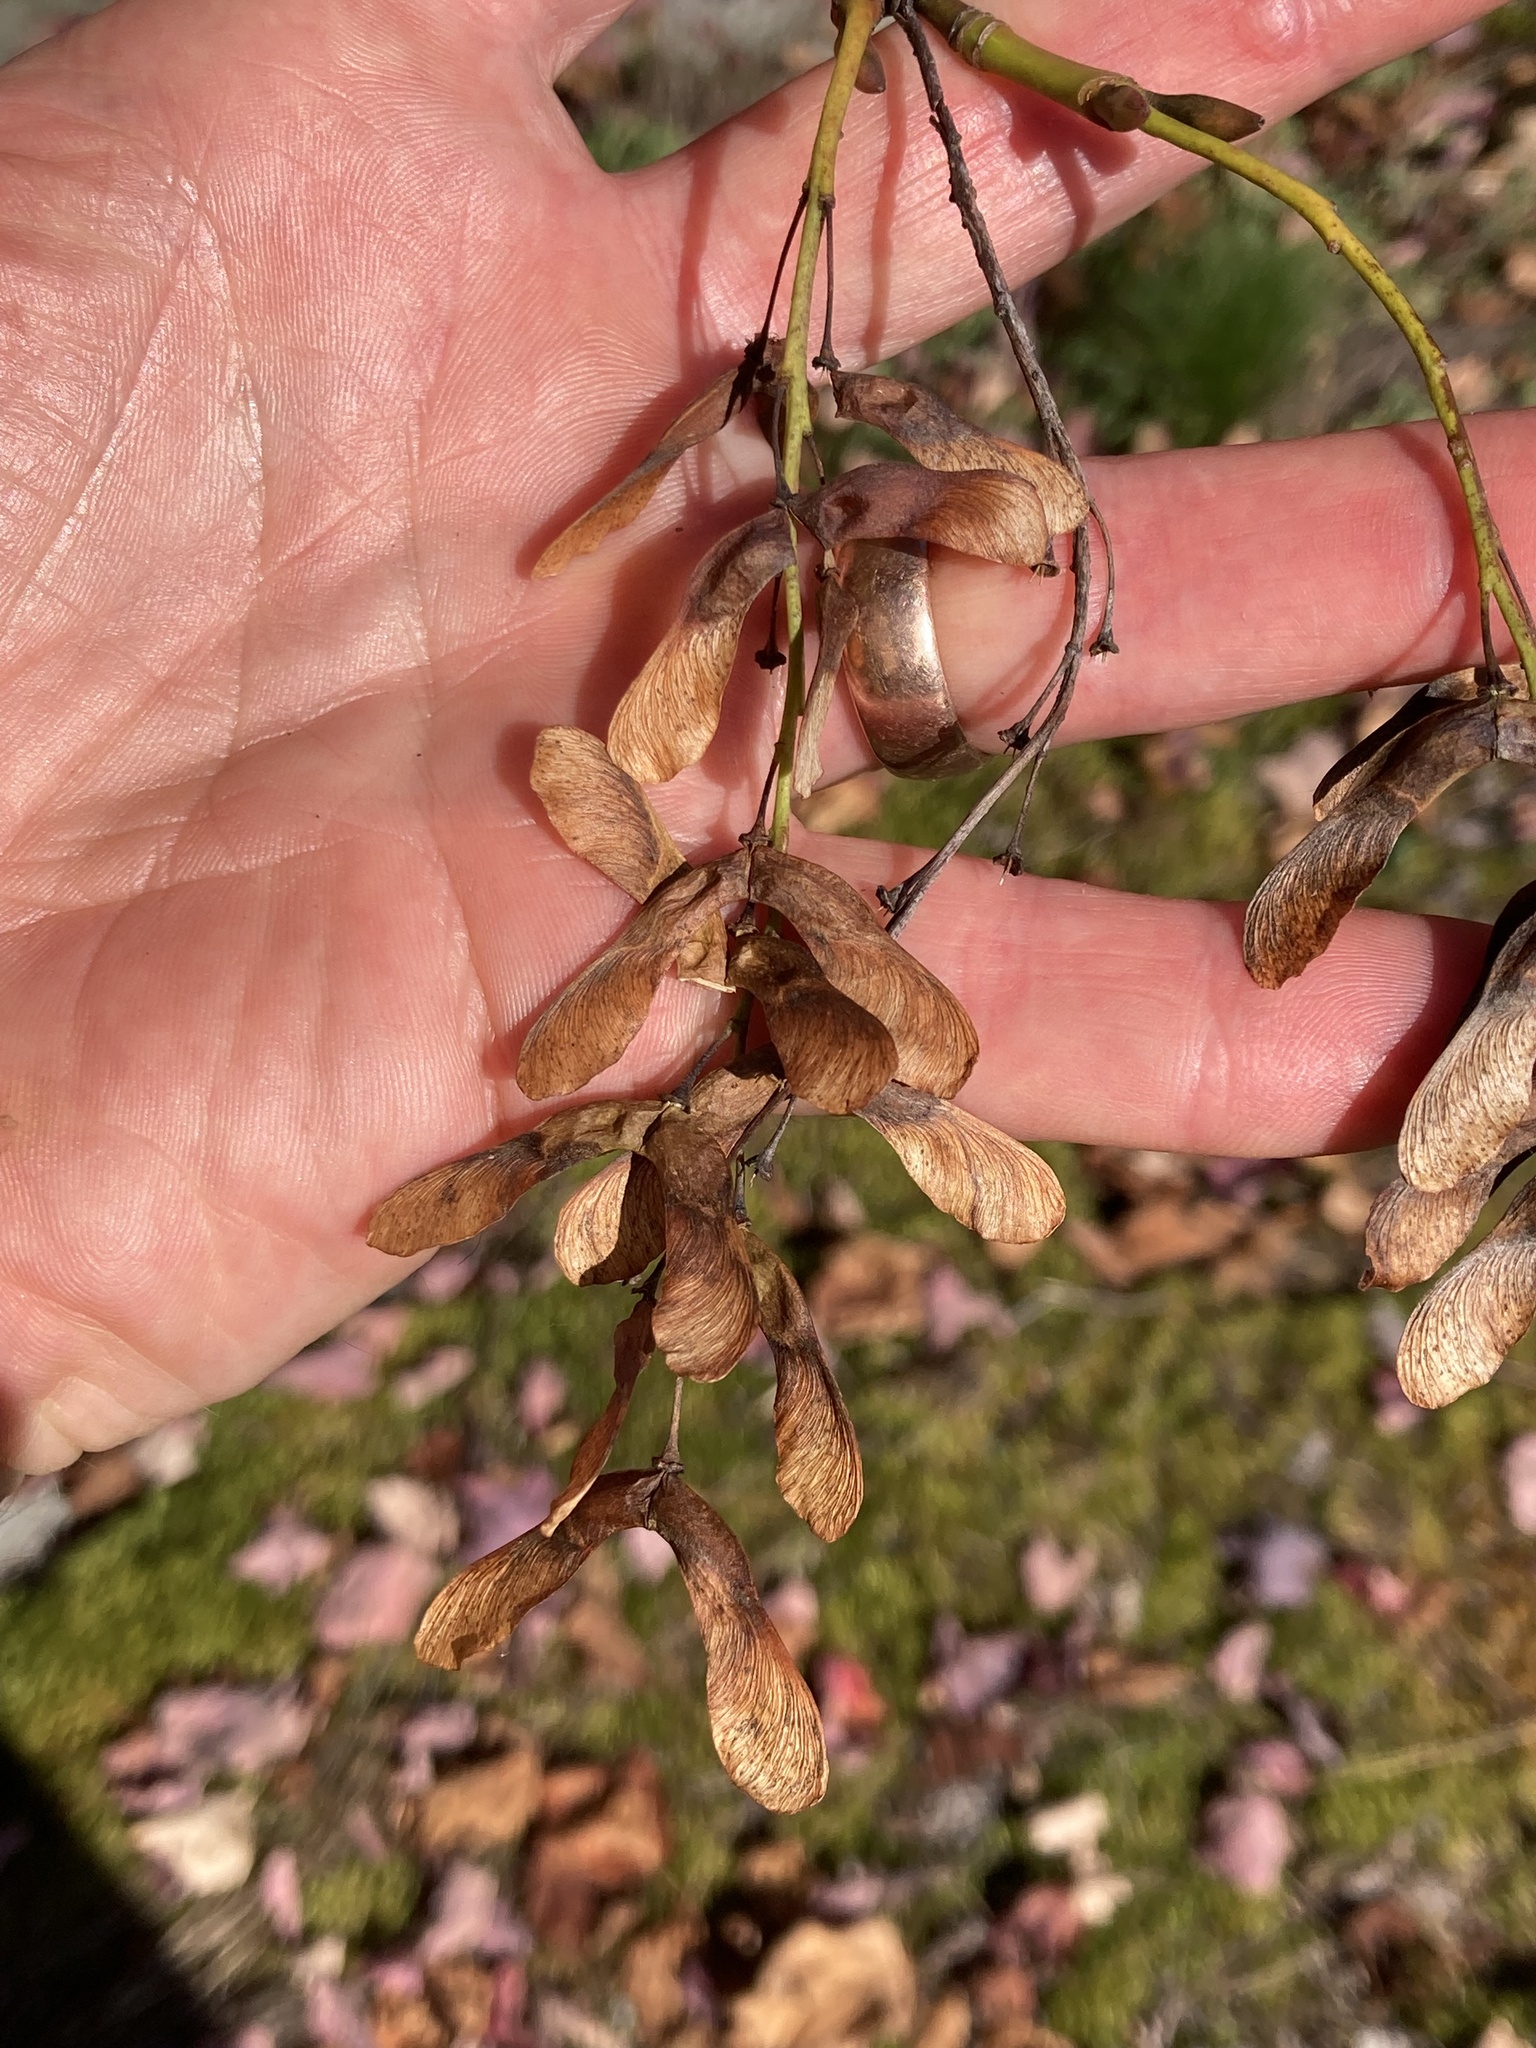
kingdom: Plantae
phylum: Tracheophyta
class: Magnoliopsida
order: Sapindales
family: Sapindaceae
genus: Acer
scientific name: Acer pensylvanicum
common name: Moosewood
